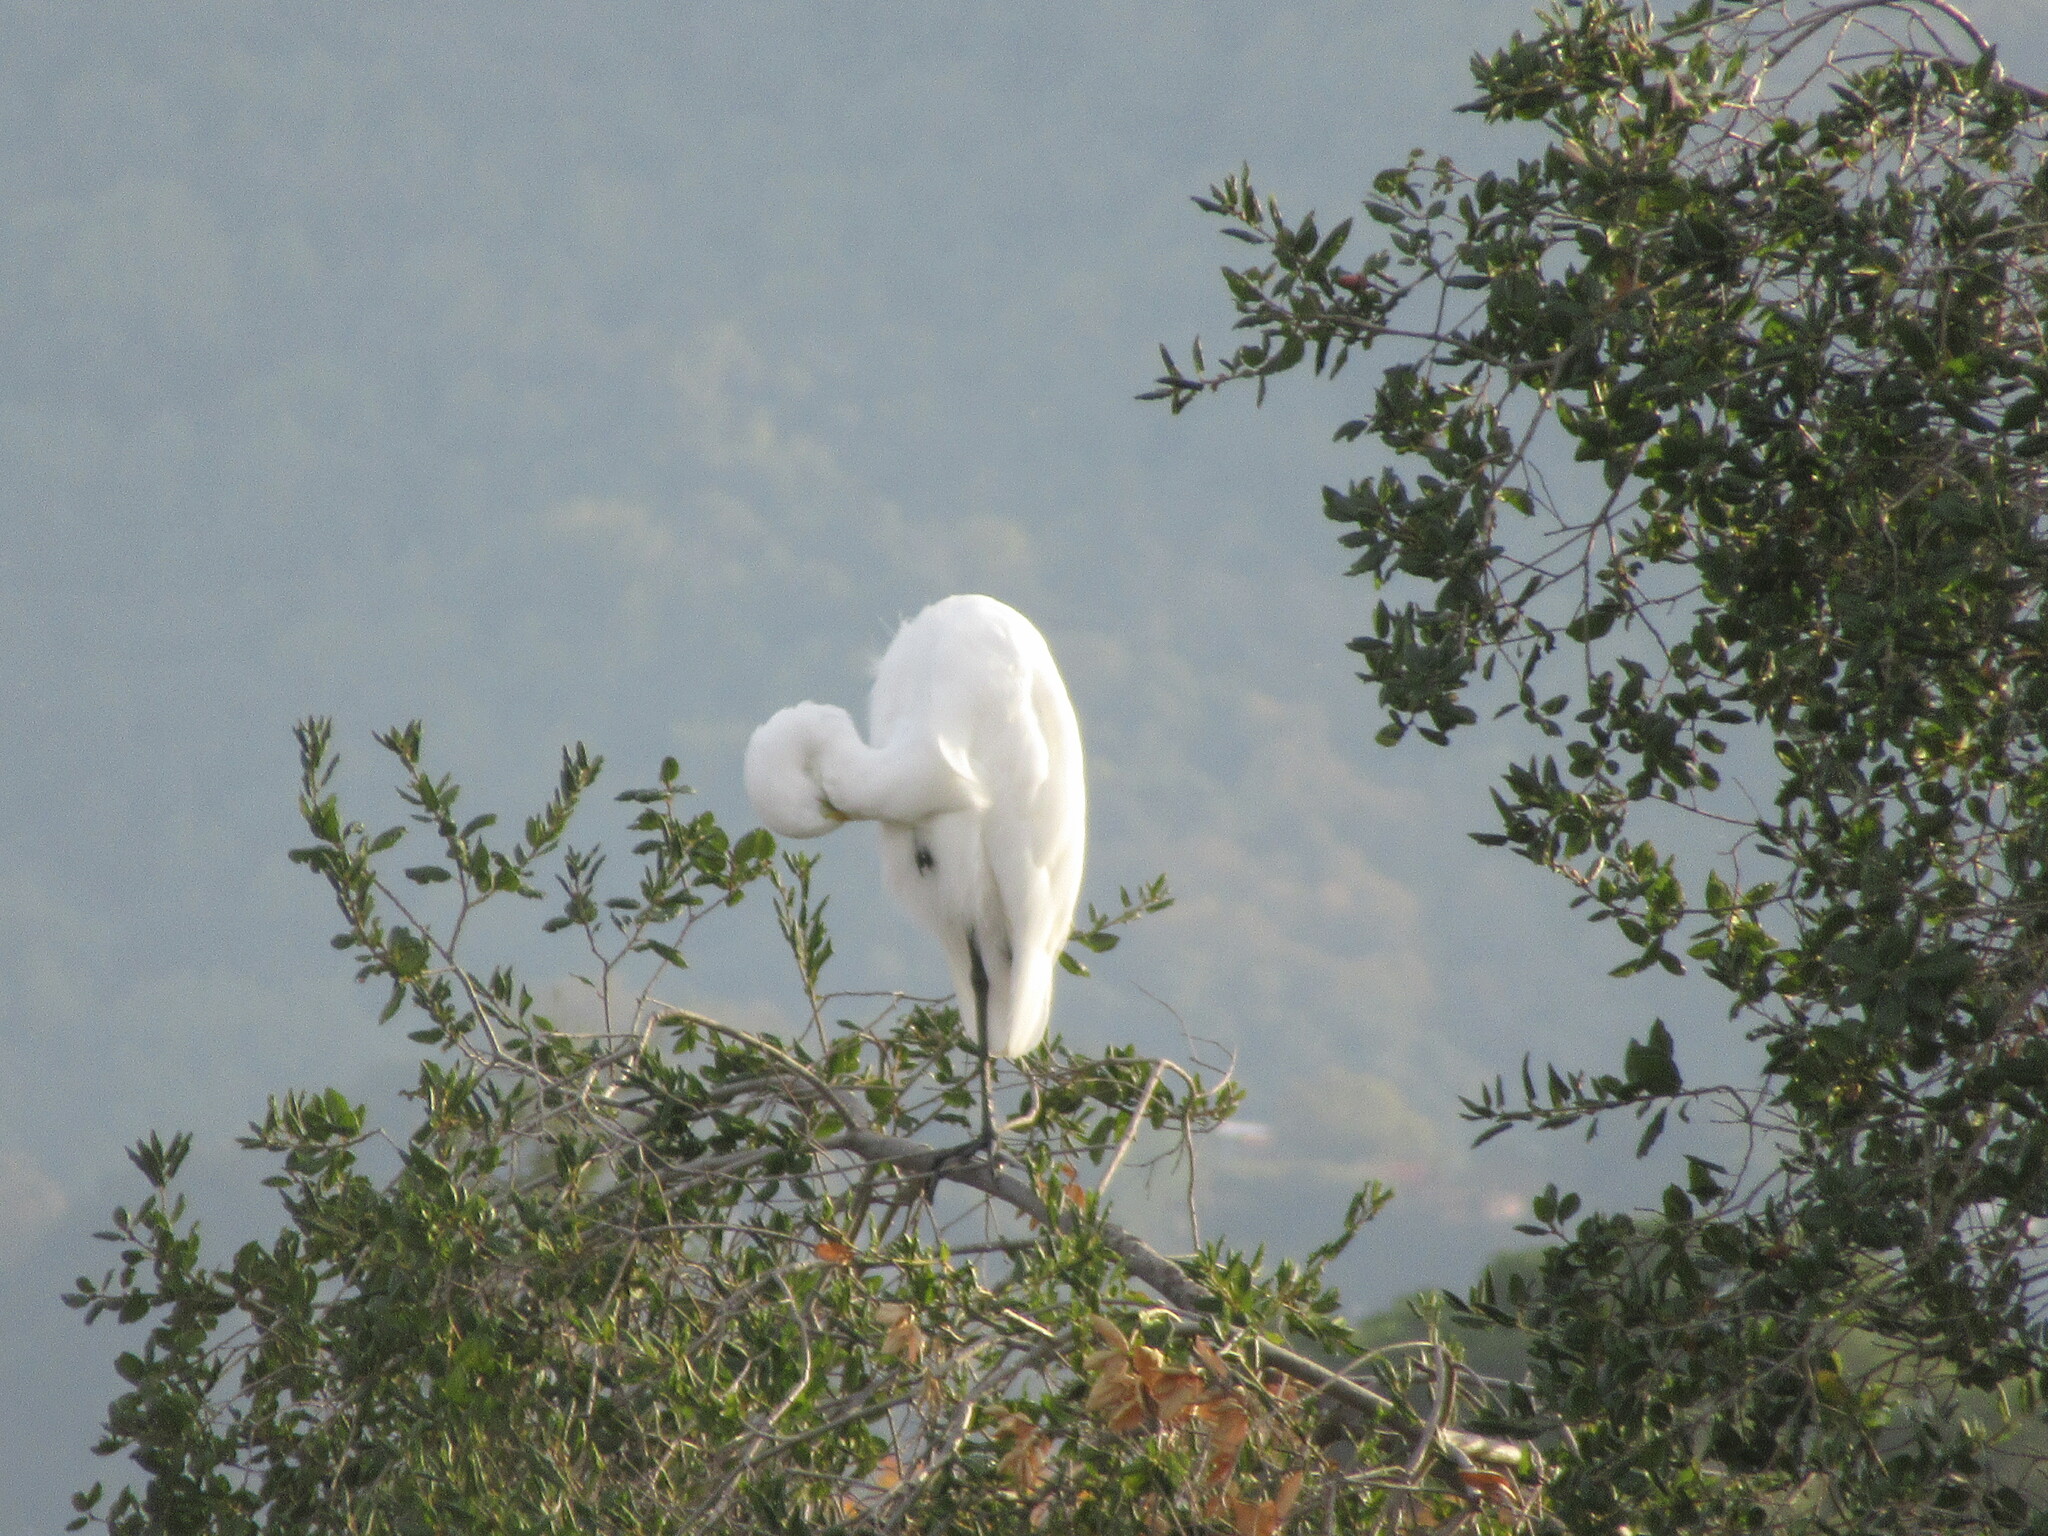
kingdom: Animalia
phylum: Chordata
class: Aves
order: Pelecaniformes
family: Ardeidae
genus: Ardea
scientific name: Ardea alba
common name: Great egret
